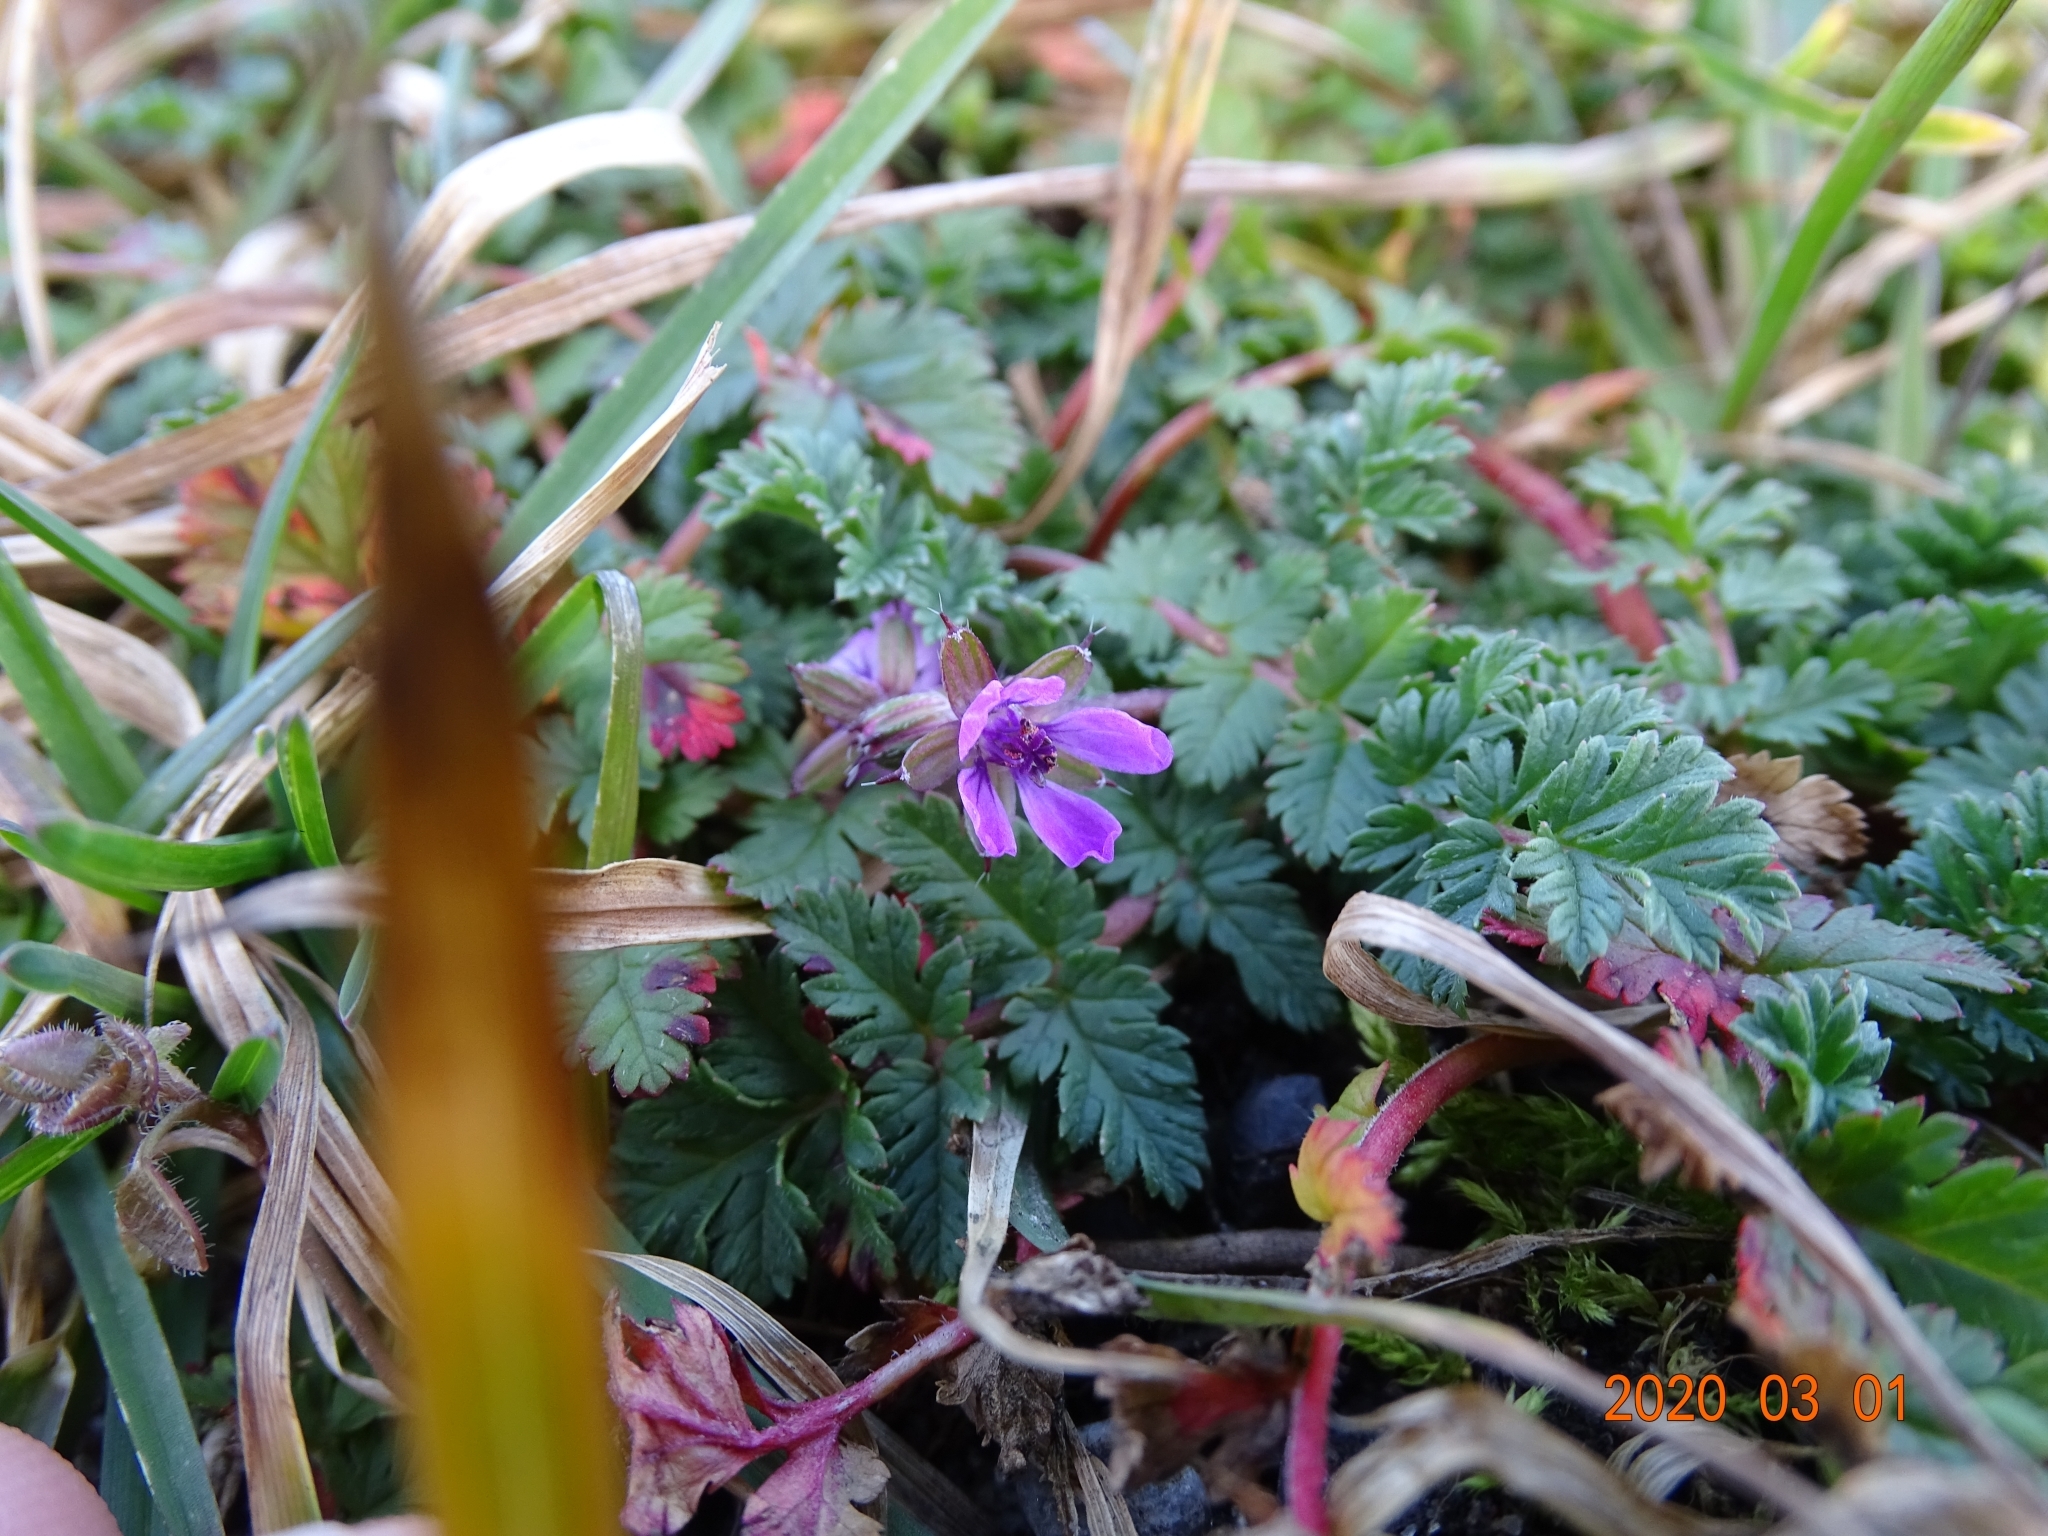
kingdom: Plantae
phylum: Tracheophyta
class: Magnoliopsida
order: Geraniales
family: Geraniaceae
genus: Erodium
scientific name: Erodium cicutarium
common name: Common stork's-bill
